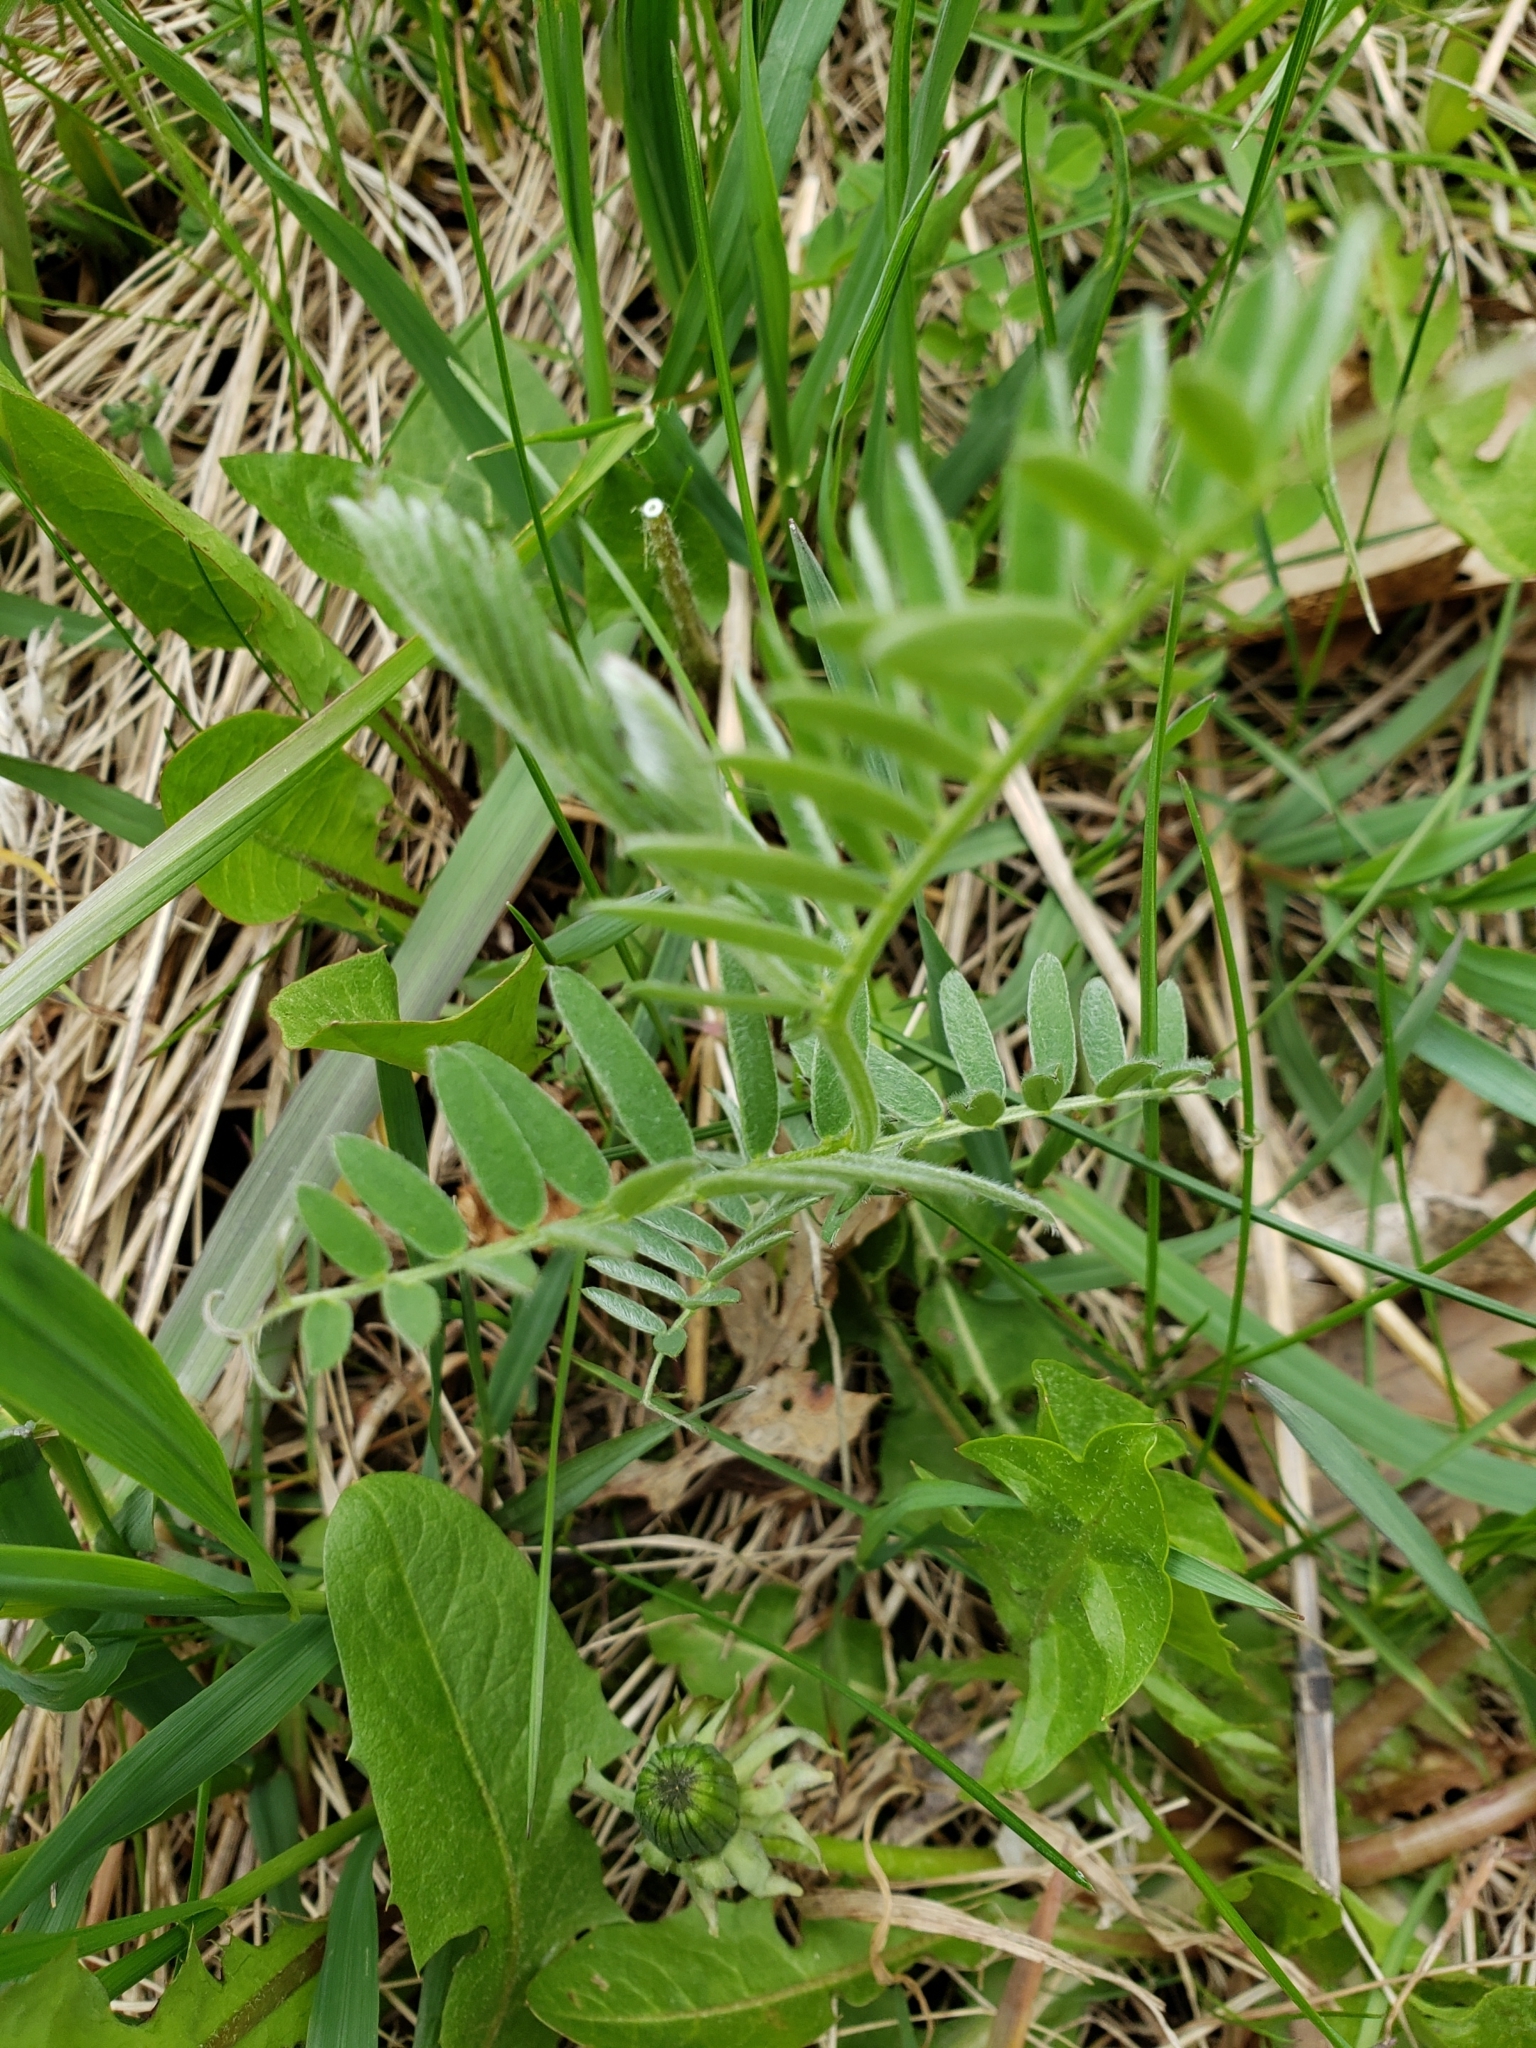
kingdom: Plantae
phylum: Tracheophyta
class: Magnoliopsida
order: Fabales
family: Fabaceae
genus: Vicia
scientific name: Vicia cracca
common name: Bird vetch
